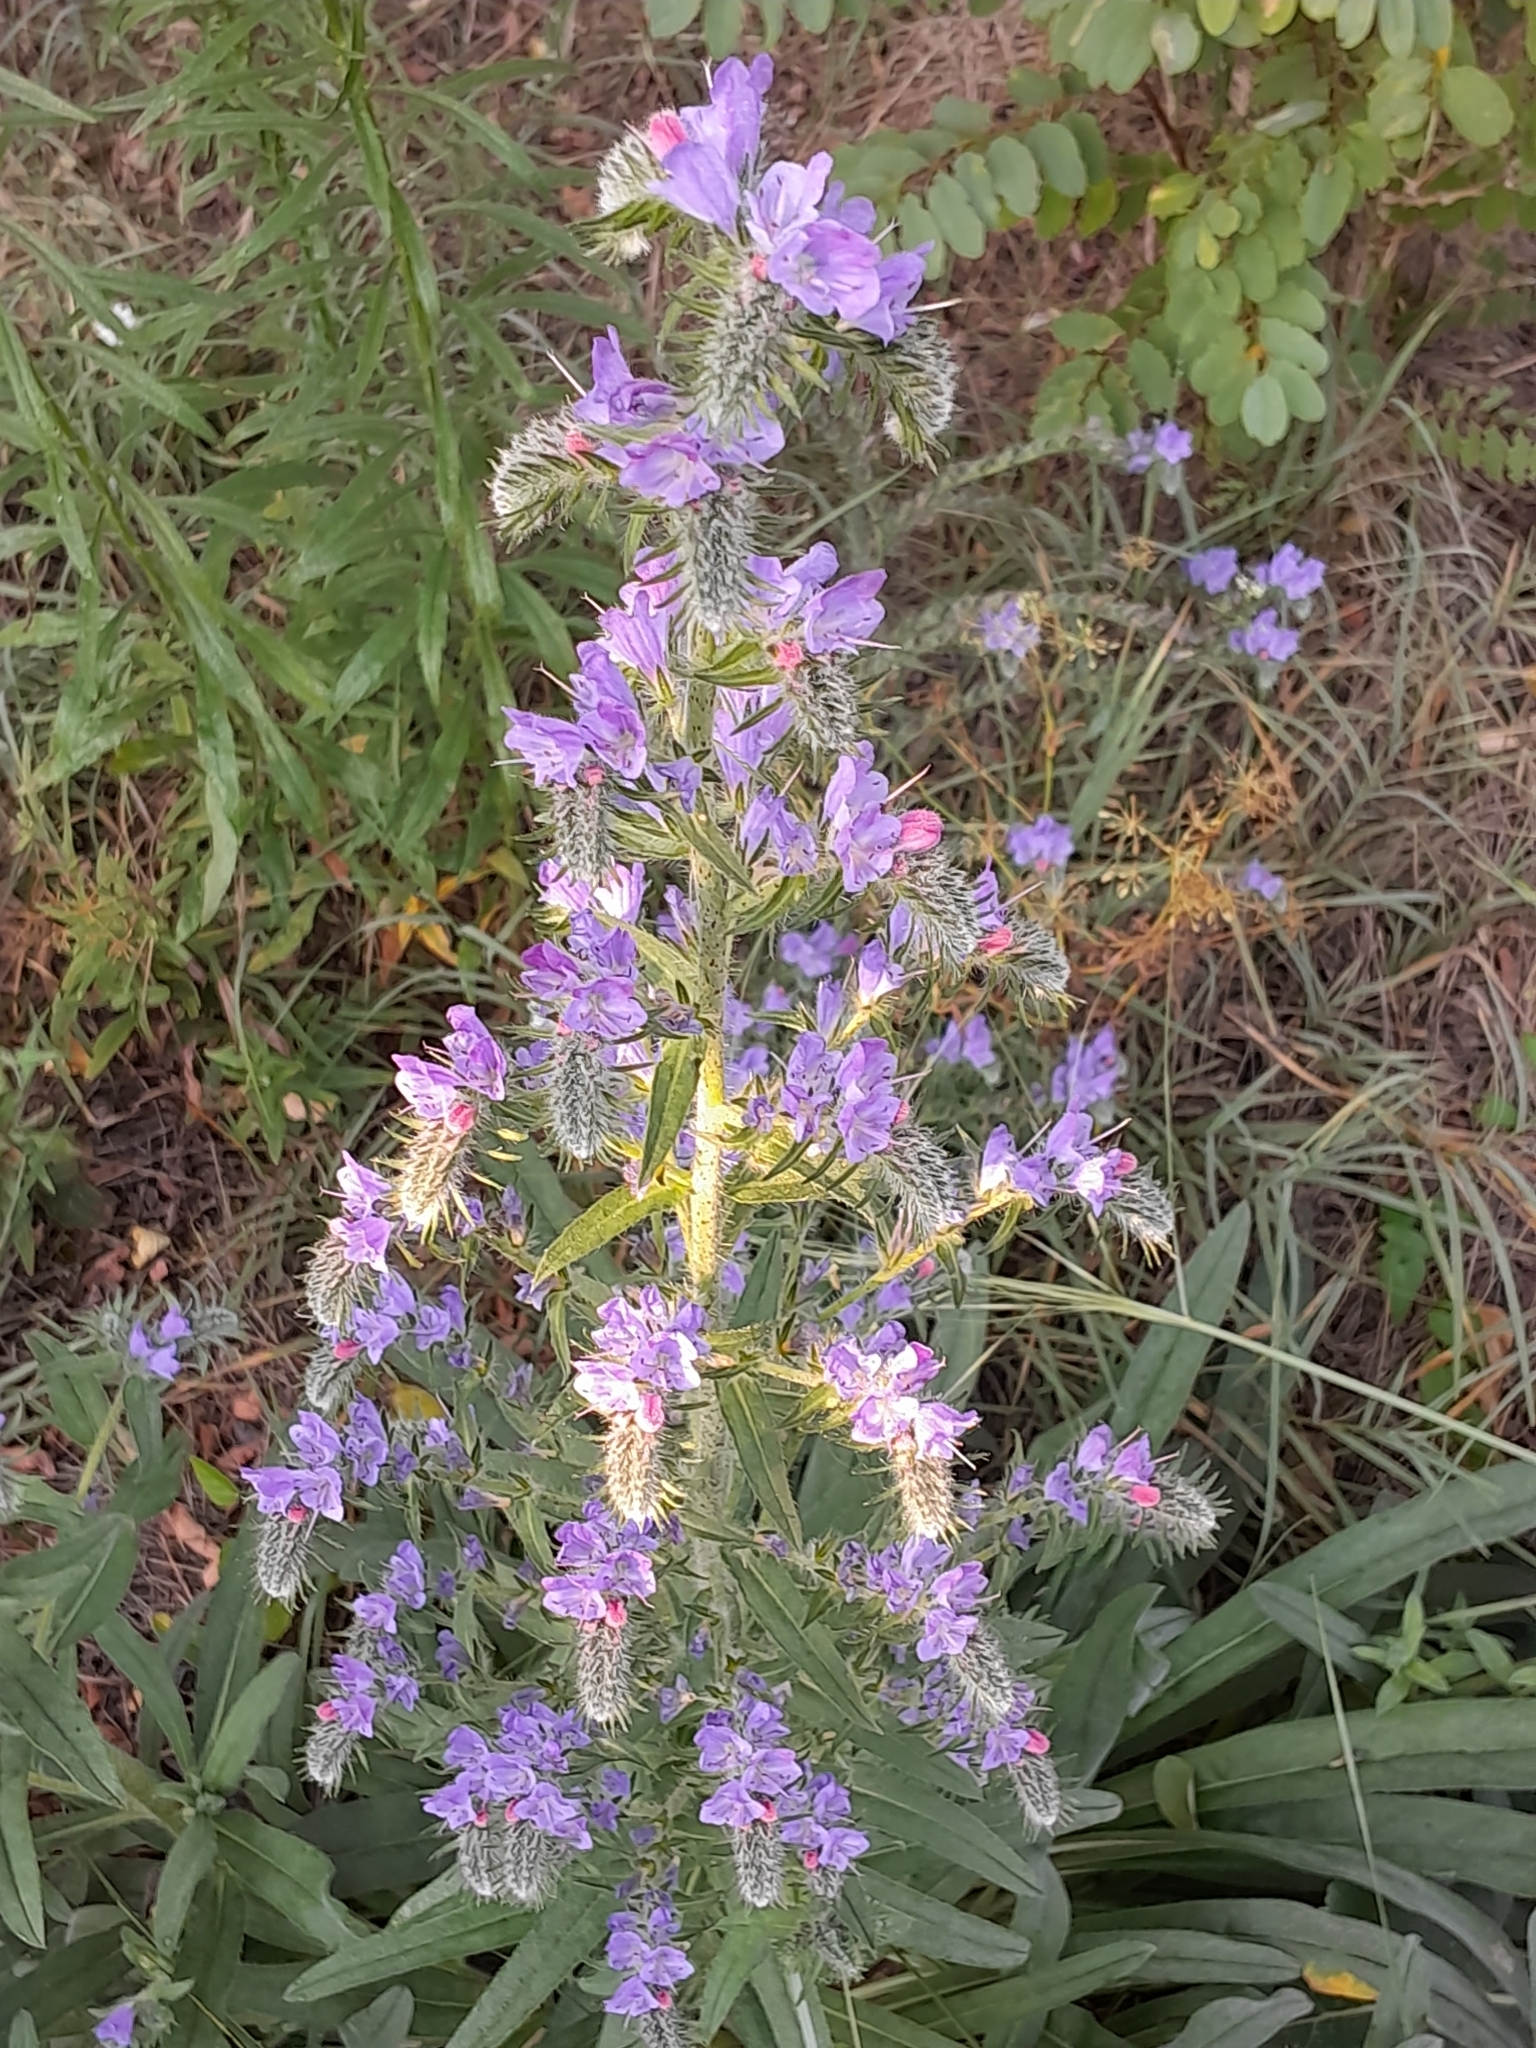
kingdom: Plantae
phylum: Tracheophyta
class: Magnoliopsida
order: Boraginales
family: Boraginaceae
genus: Echium
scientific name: Echium vulgare
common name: Common viper's bugloss
